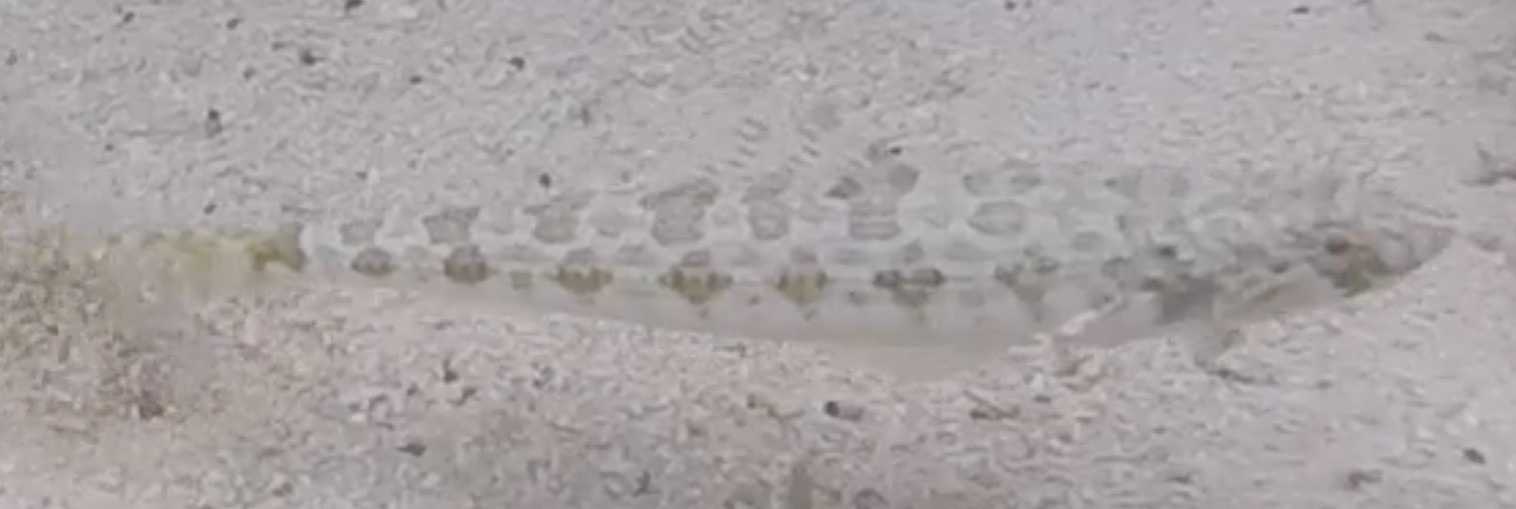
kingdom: Animalia
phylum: Chordata
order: Aulopiformes
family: Synodontidae
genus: Synodus
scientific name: Synodus intermedius
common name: Sand diver
